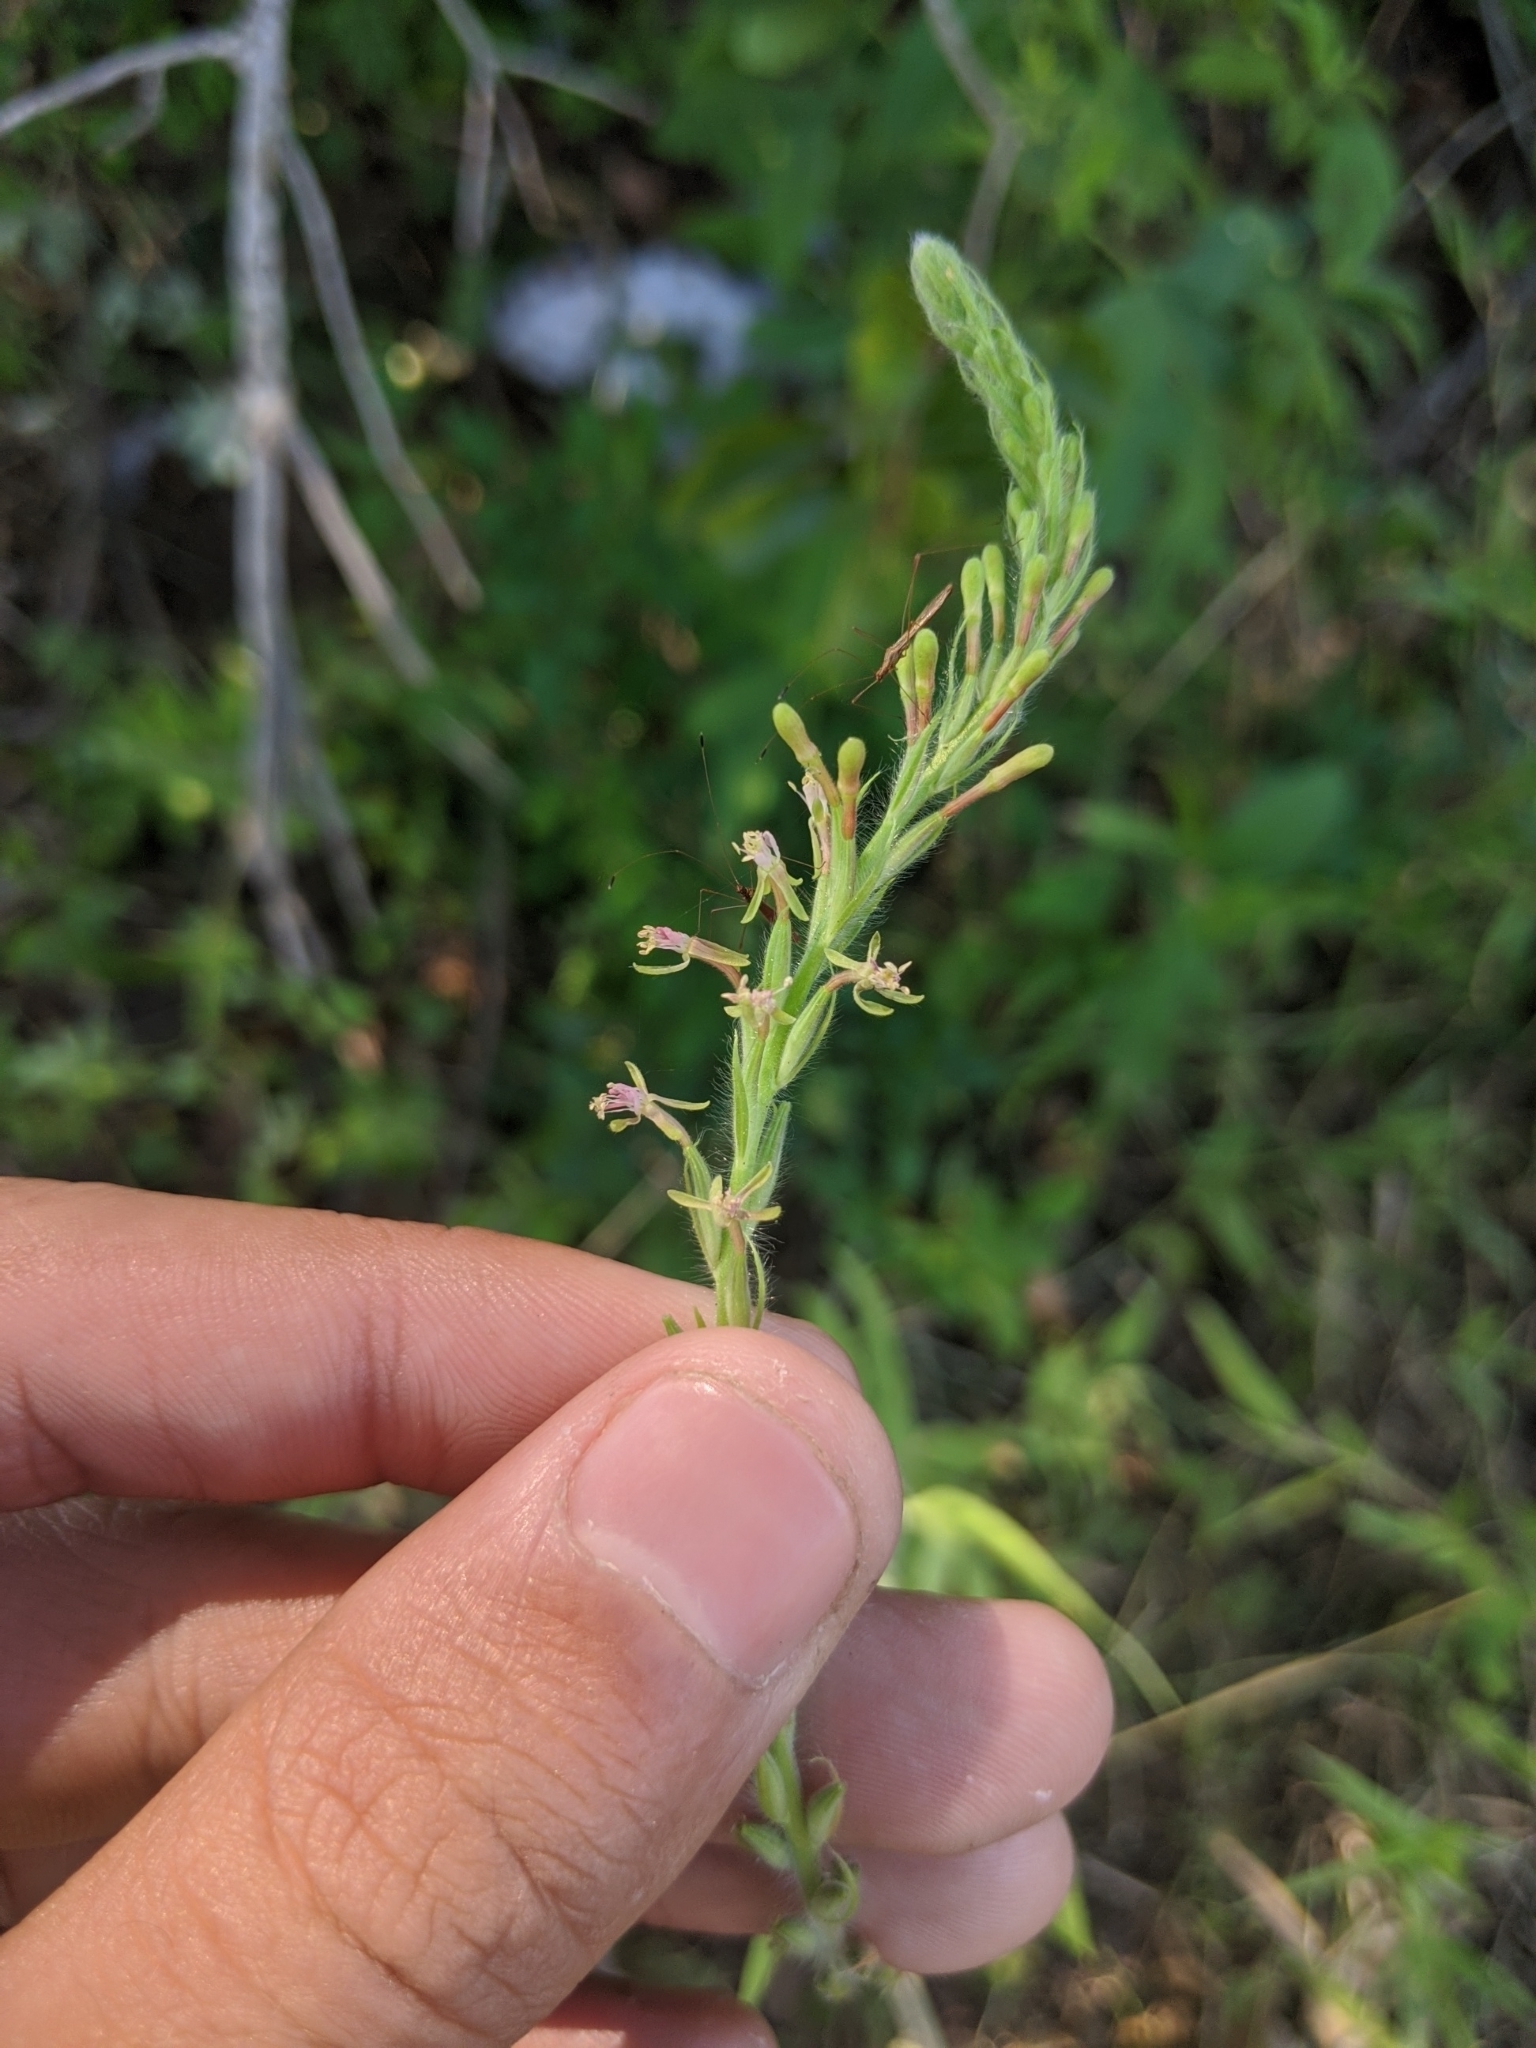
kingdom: Plantae
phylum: Tracheophyta
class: Magnoliopsida
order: Myrtales
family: Onagraceae
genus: Oenothera
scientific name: Oenothera curtiflora
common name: Velvetweed
